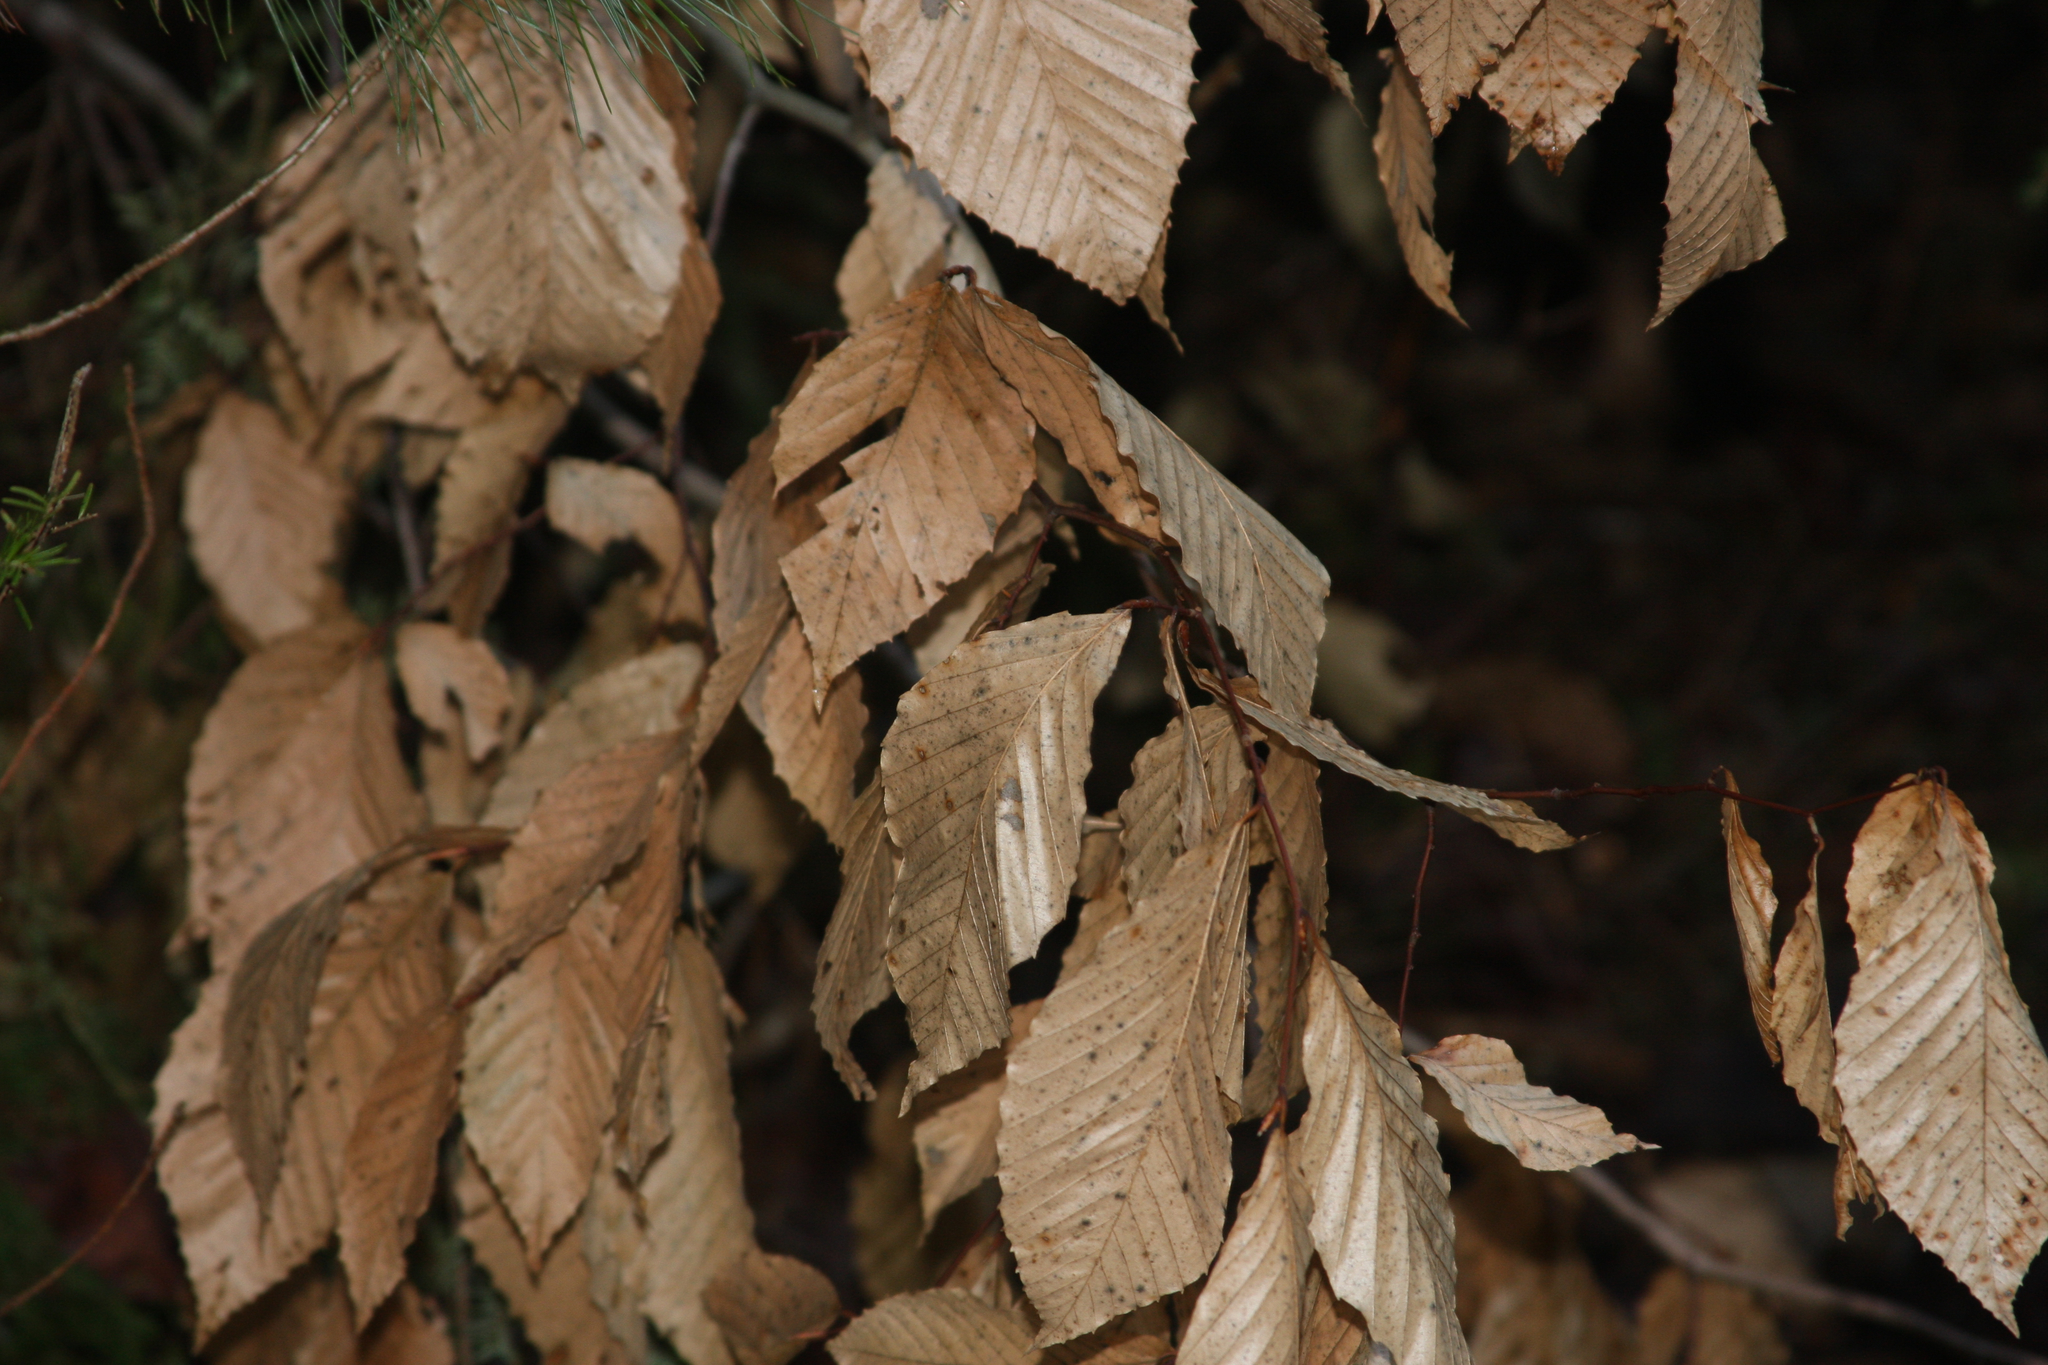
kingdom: Plantae
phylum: Tracheophyta
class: Magnoliopsida
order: Fagales
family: Fagaceae
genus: Fagus
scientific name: Fagus grandifolia
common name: American beech
